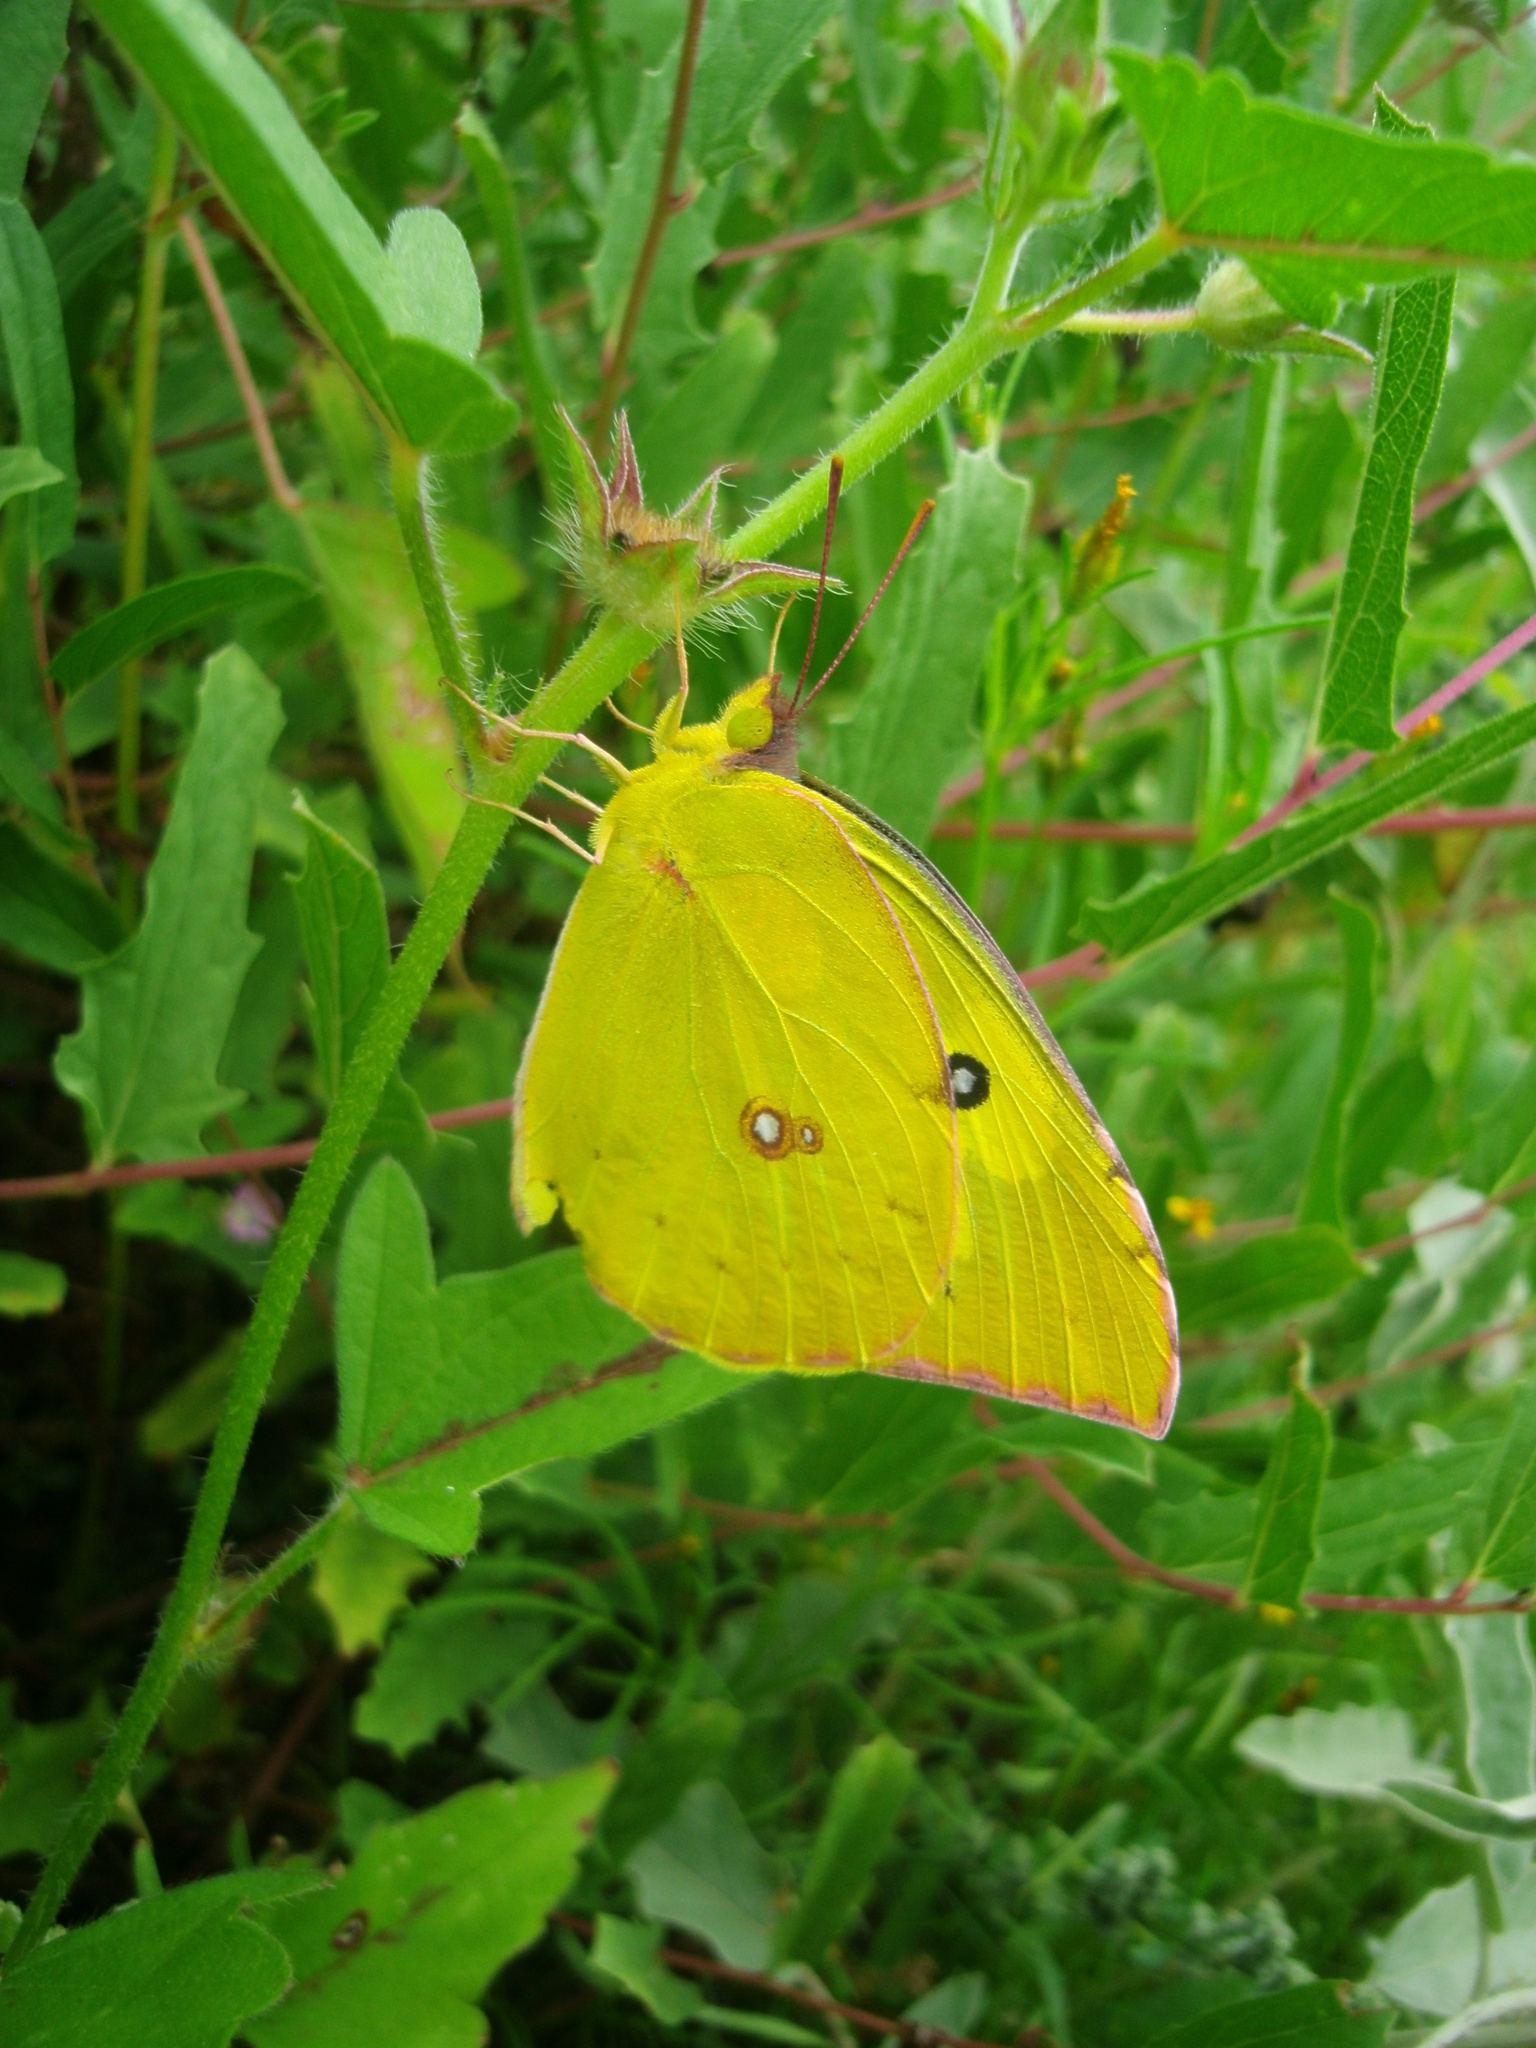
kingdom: Animalia
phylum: Arthropoda
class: Insecta
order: Lepidoptera
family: Pieridae
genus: Zerene
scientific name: Zerene cesonia
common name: Southern dogface
